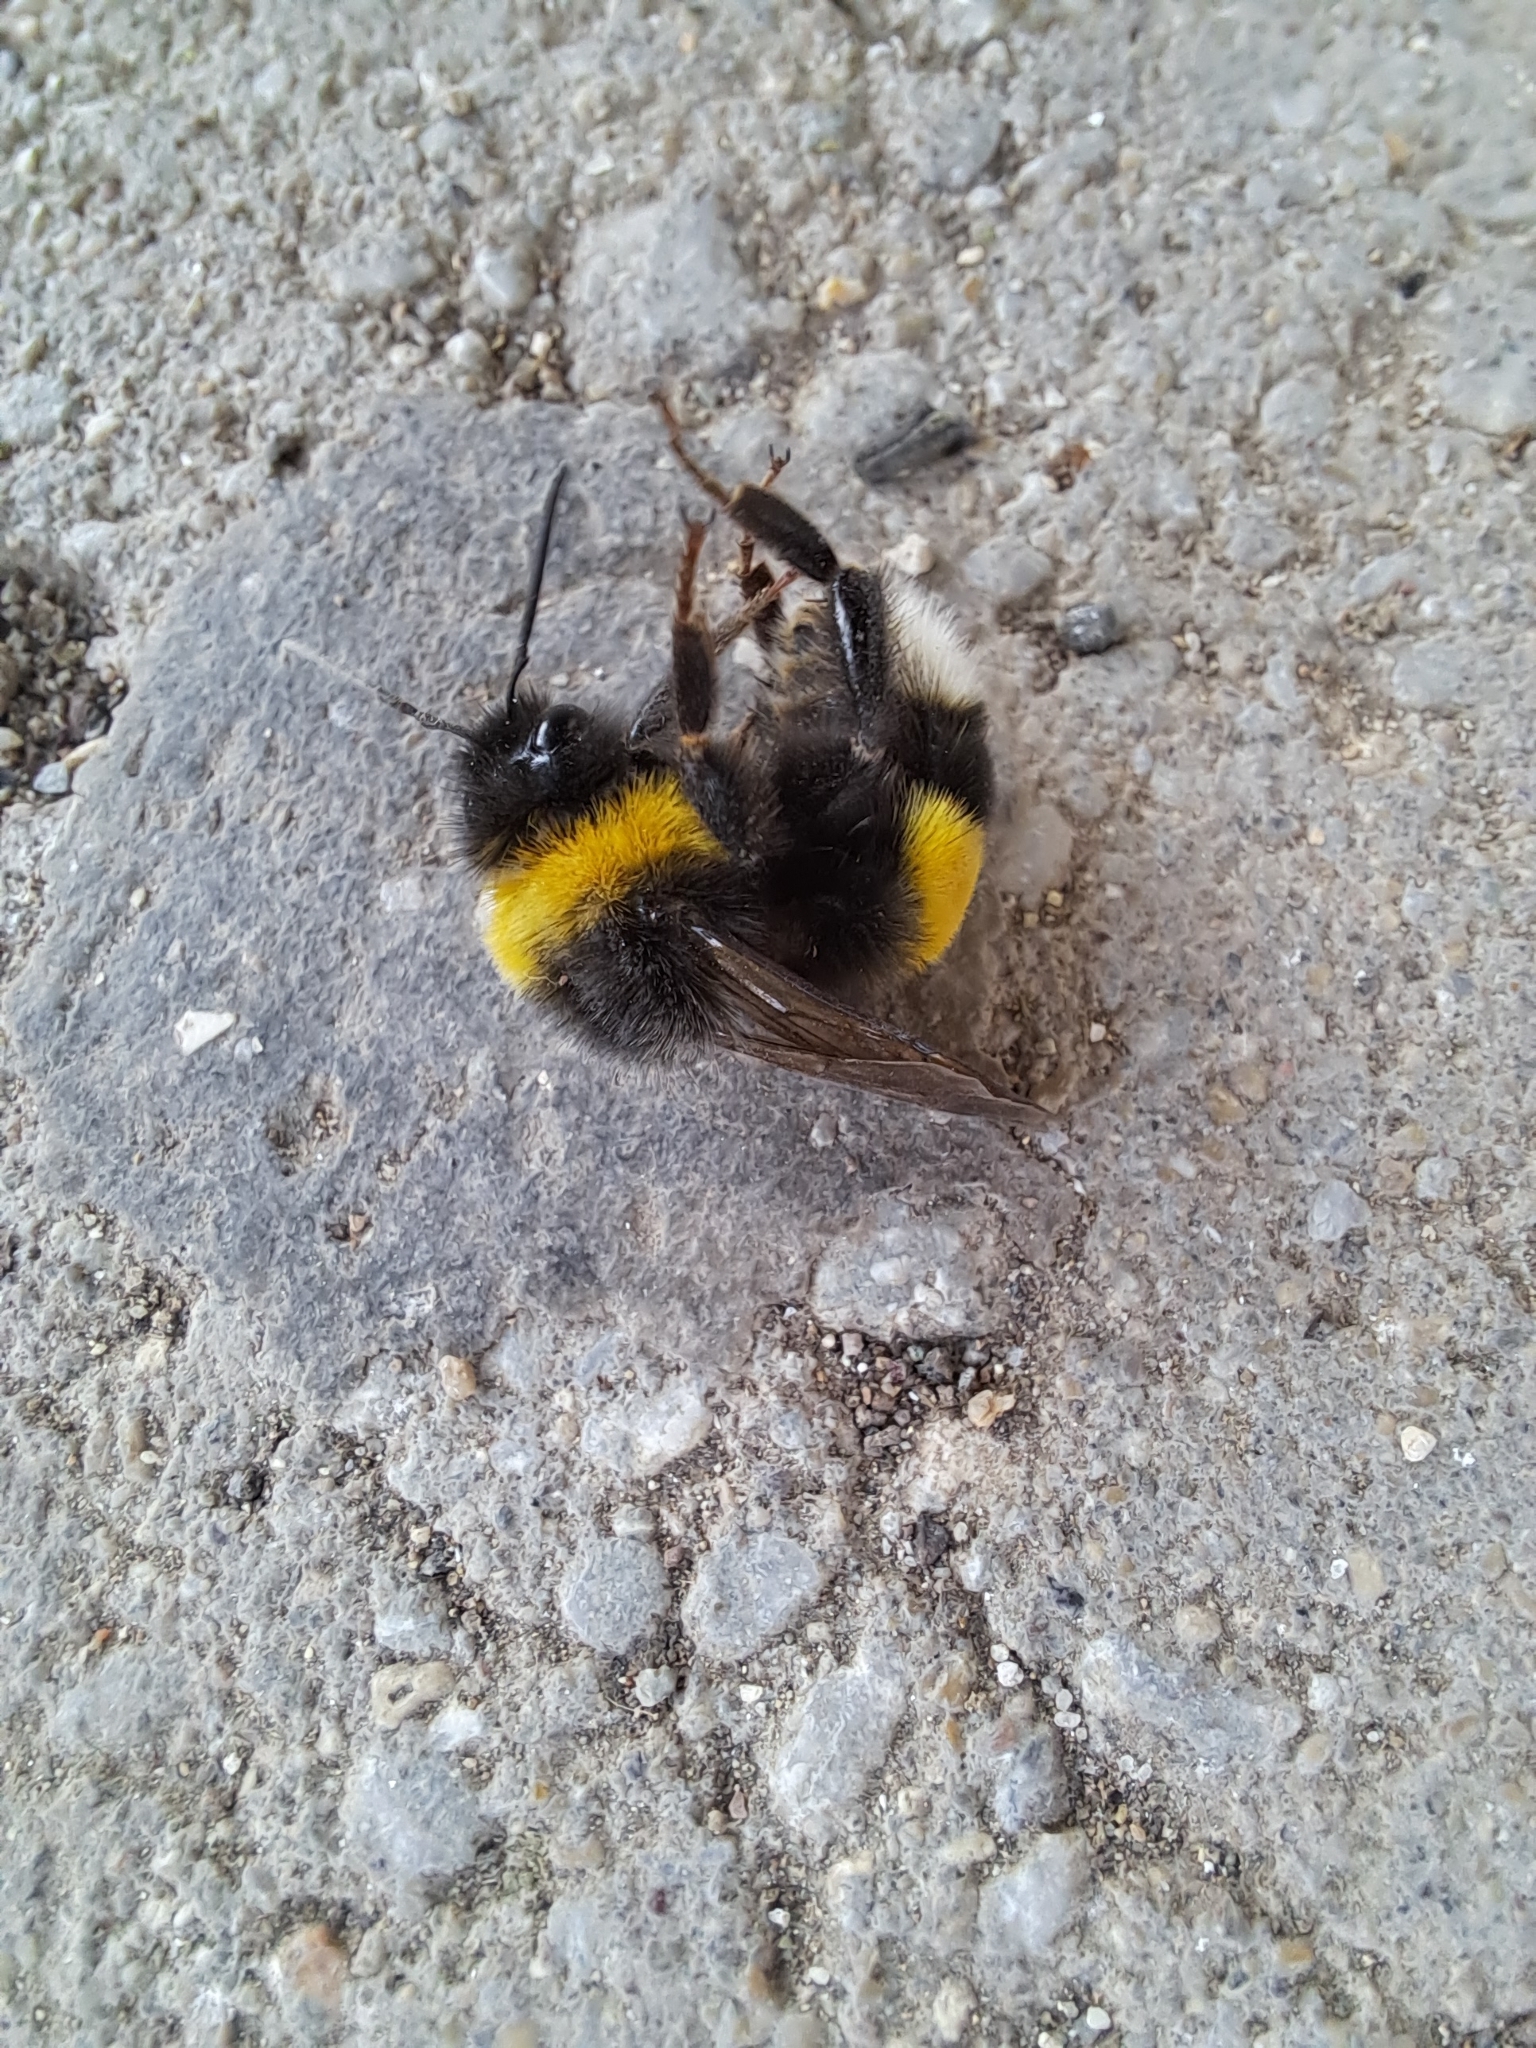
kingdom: Animalia
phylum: Arthropoda
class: Insecta
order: Hymenoptera
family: Apidae
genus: Bombus
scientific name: Bombus terrestris
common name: Buff-tailed bumblebee
